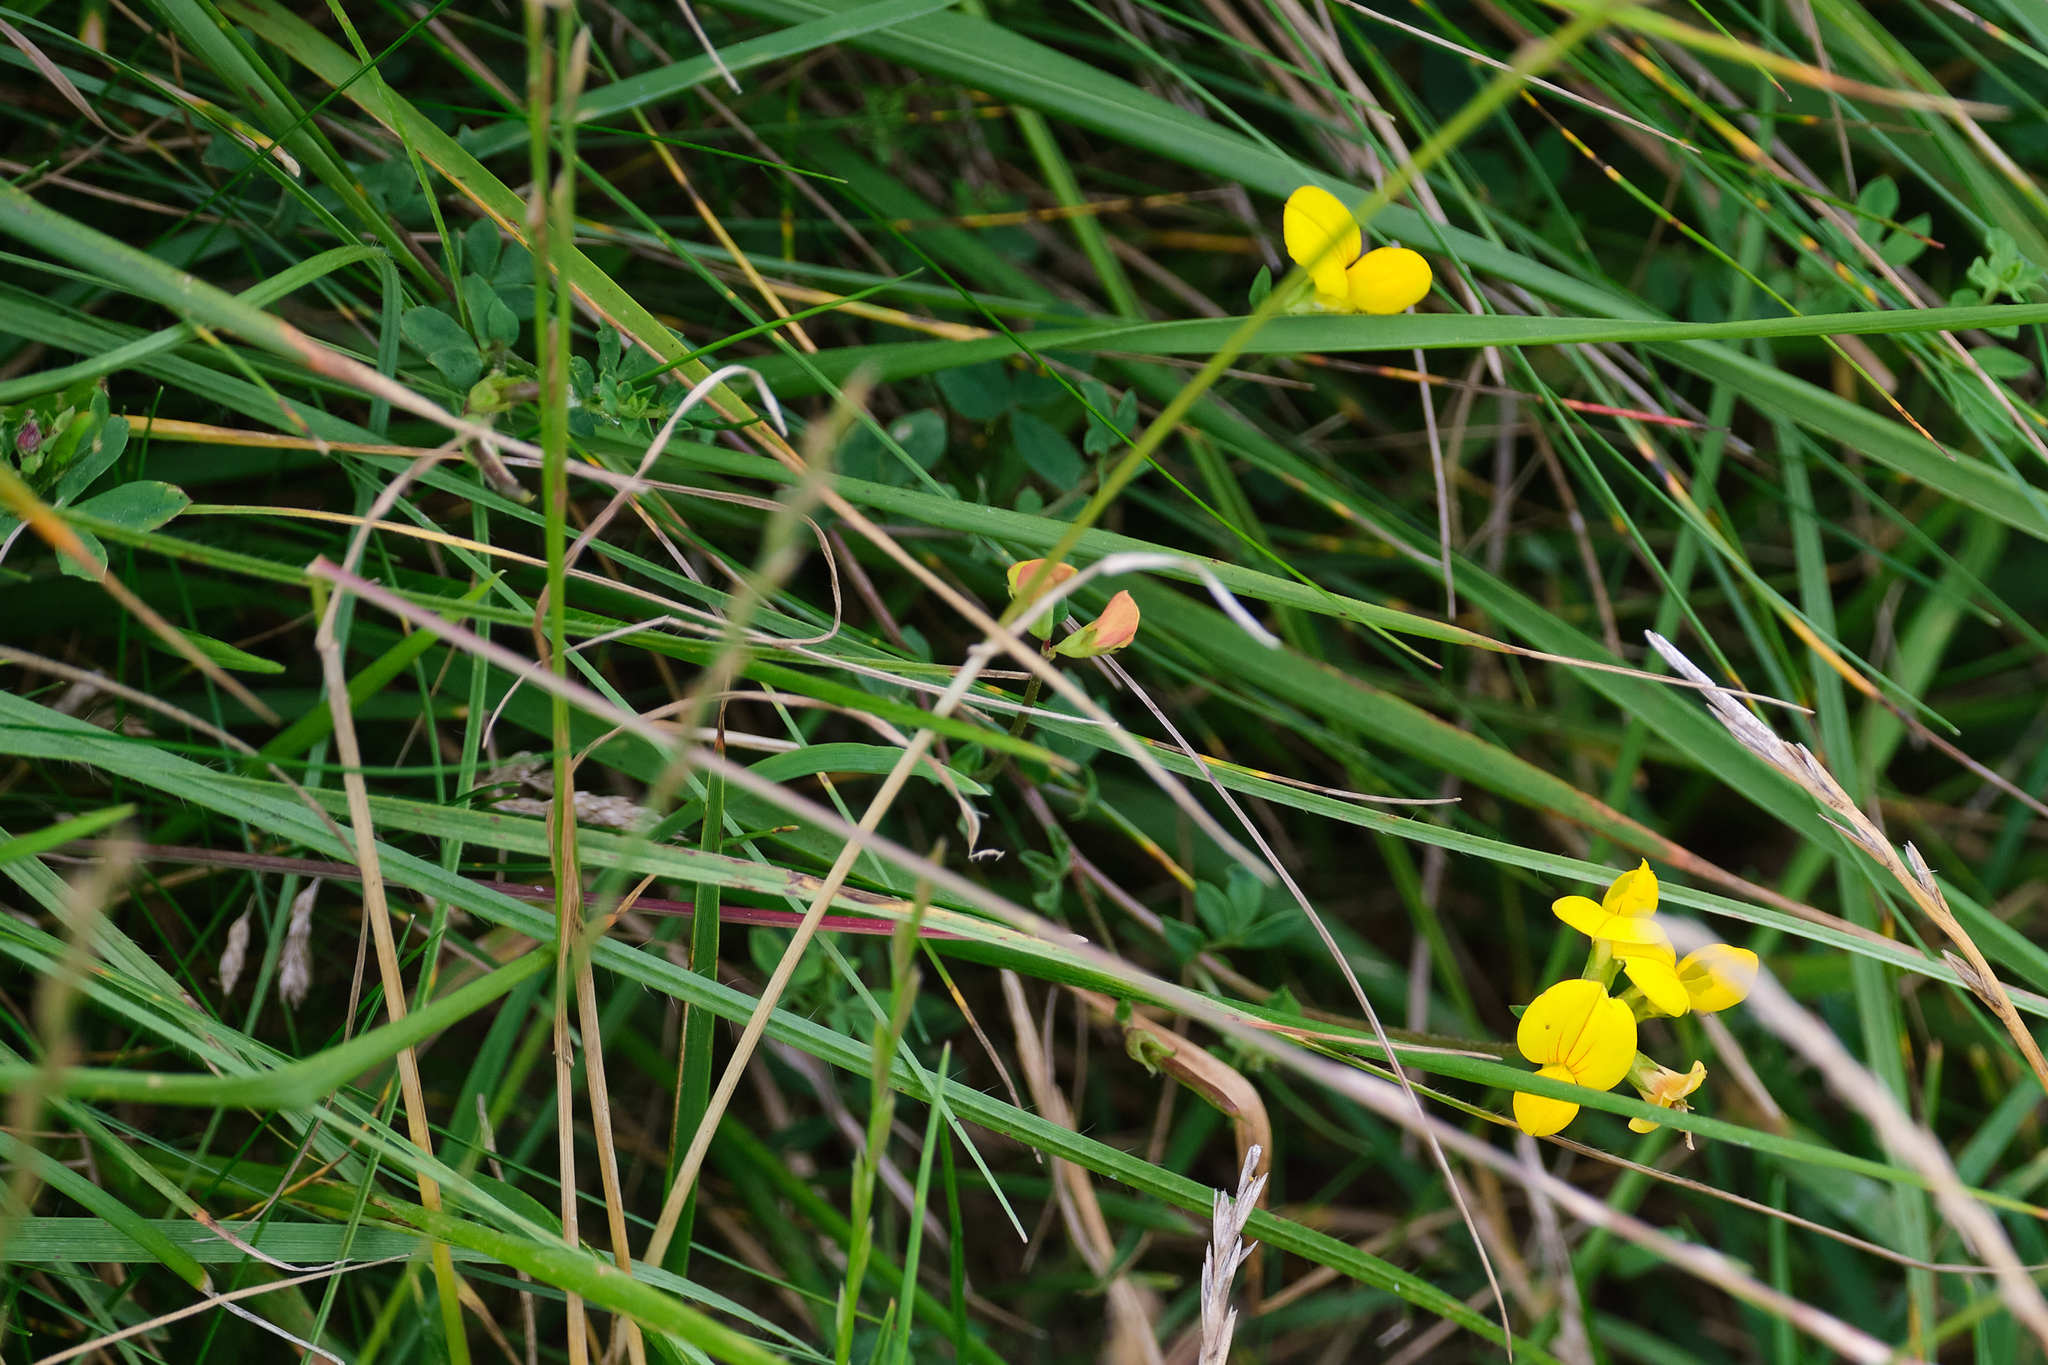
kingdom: Plantae
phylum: Tracheophyta
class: Magnoliopsida
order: Fabales
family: Fabaceae
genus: Lotus
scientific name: Lotus corniculatus
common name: Common bird's-foot-trefoil
